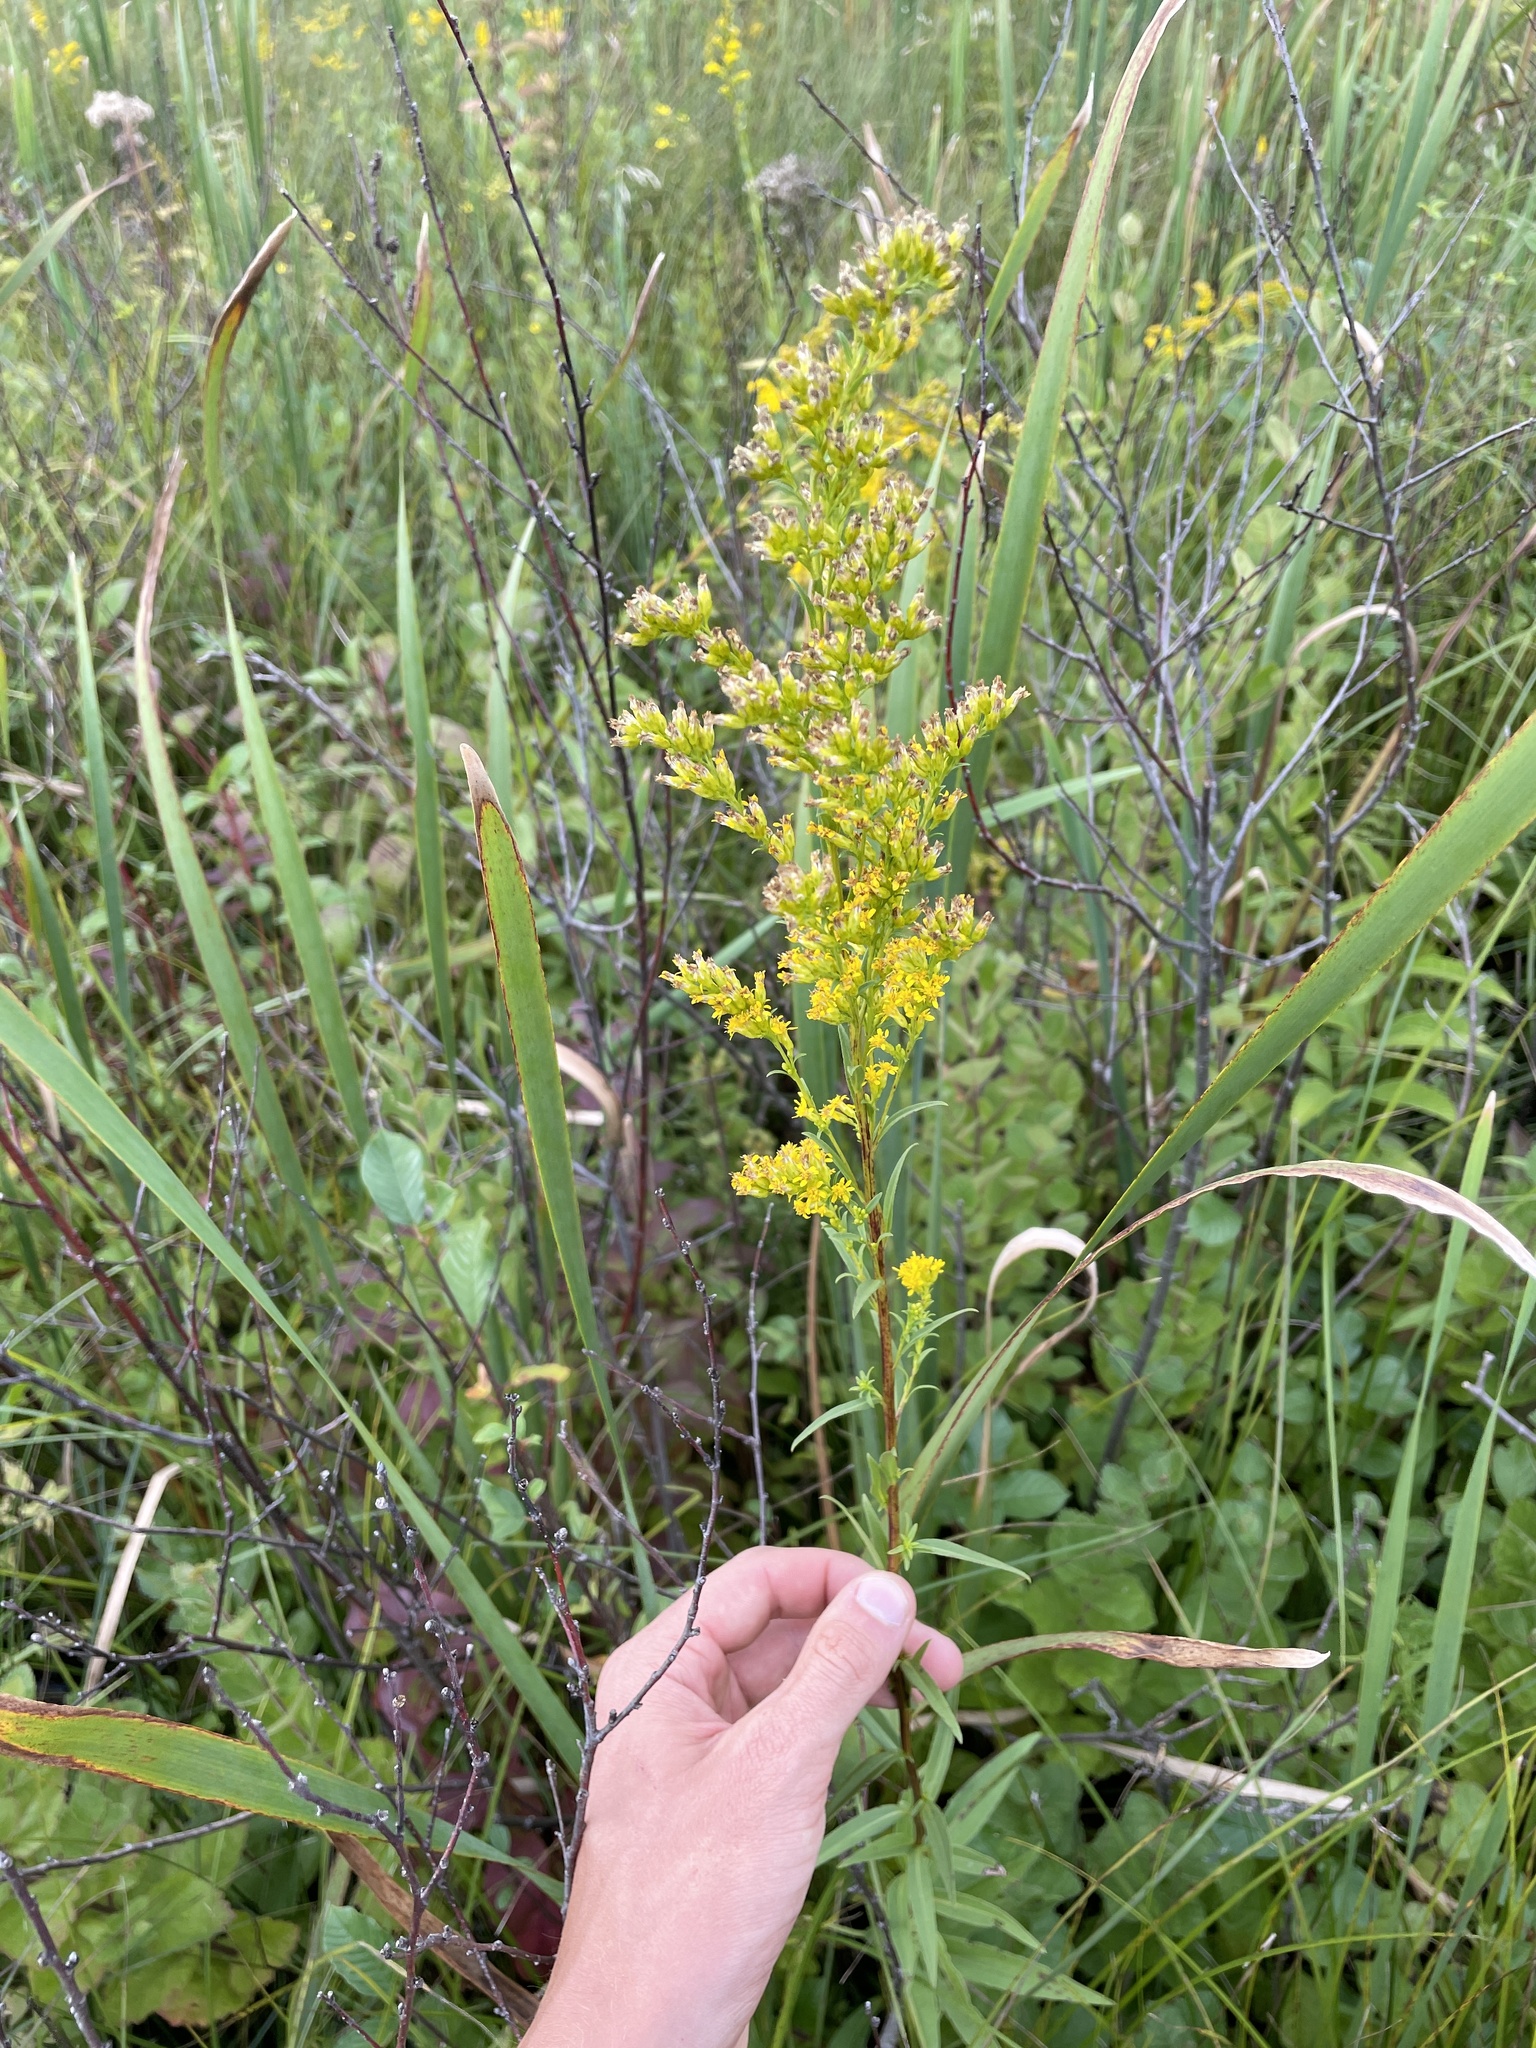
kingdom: Plantae
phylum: Tracheophyta
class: Magnoliopsida
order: Asterales
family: Asteraceae
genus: Solidago
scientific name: Solidago uliginosa
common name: Bog goldenrod
